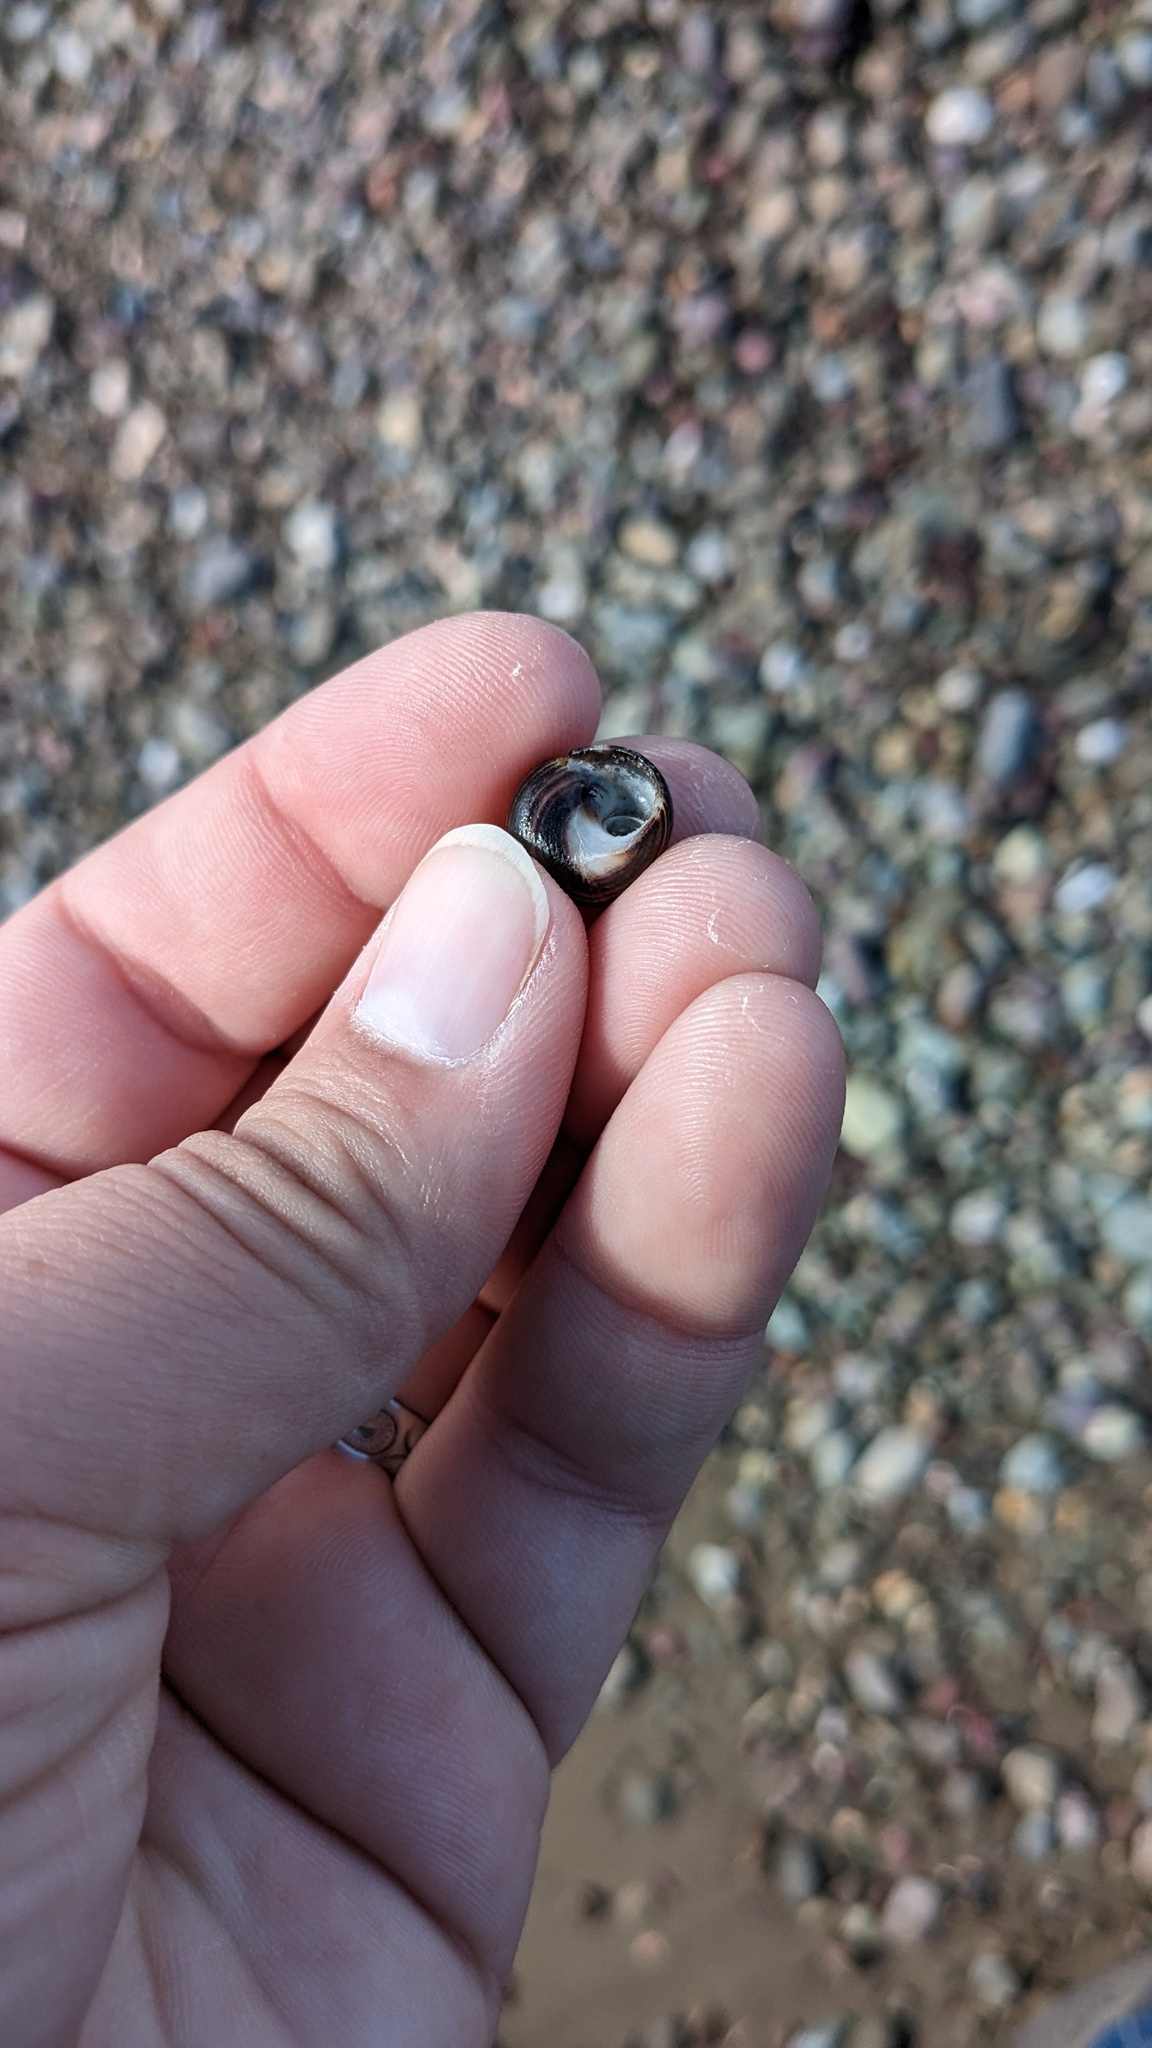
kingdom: Animalia
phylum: Mollusca
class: Gastropoda
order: Littorinimorpha
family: Littorinidae
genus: Littorina
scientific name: Littorina littorea
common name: Common periwinkle
